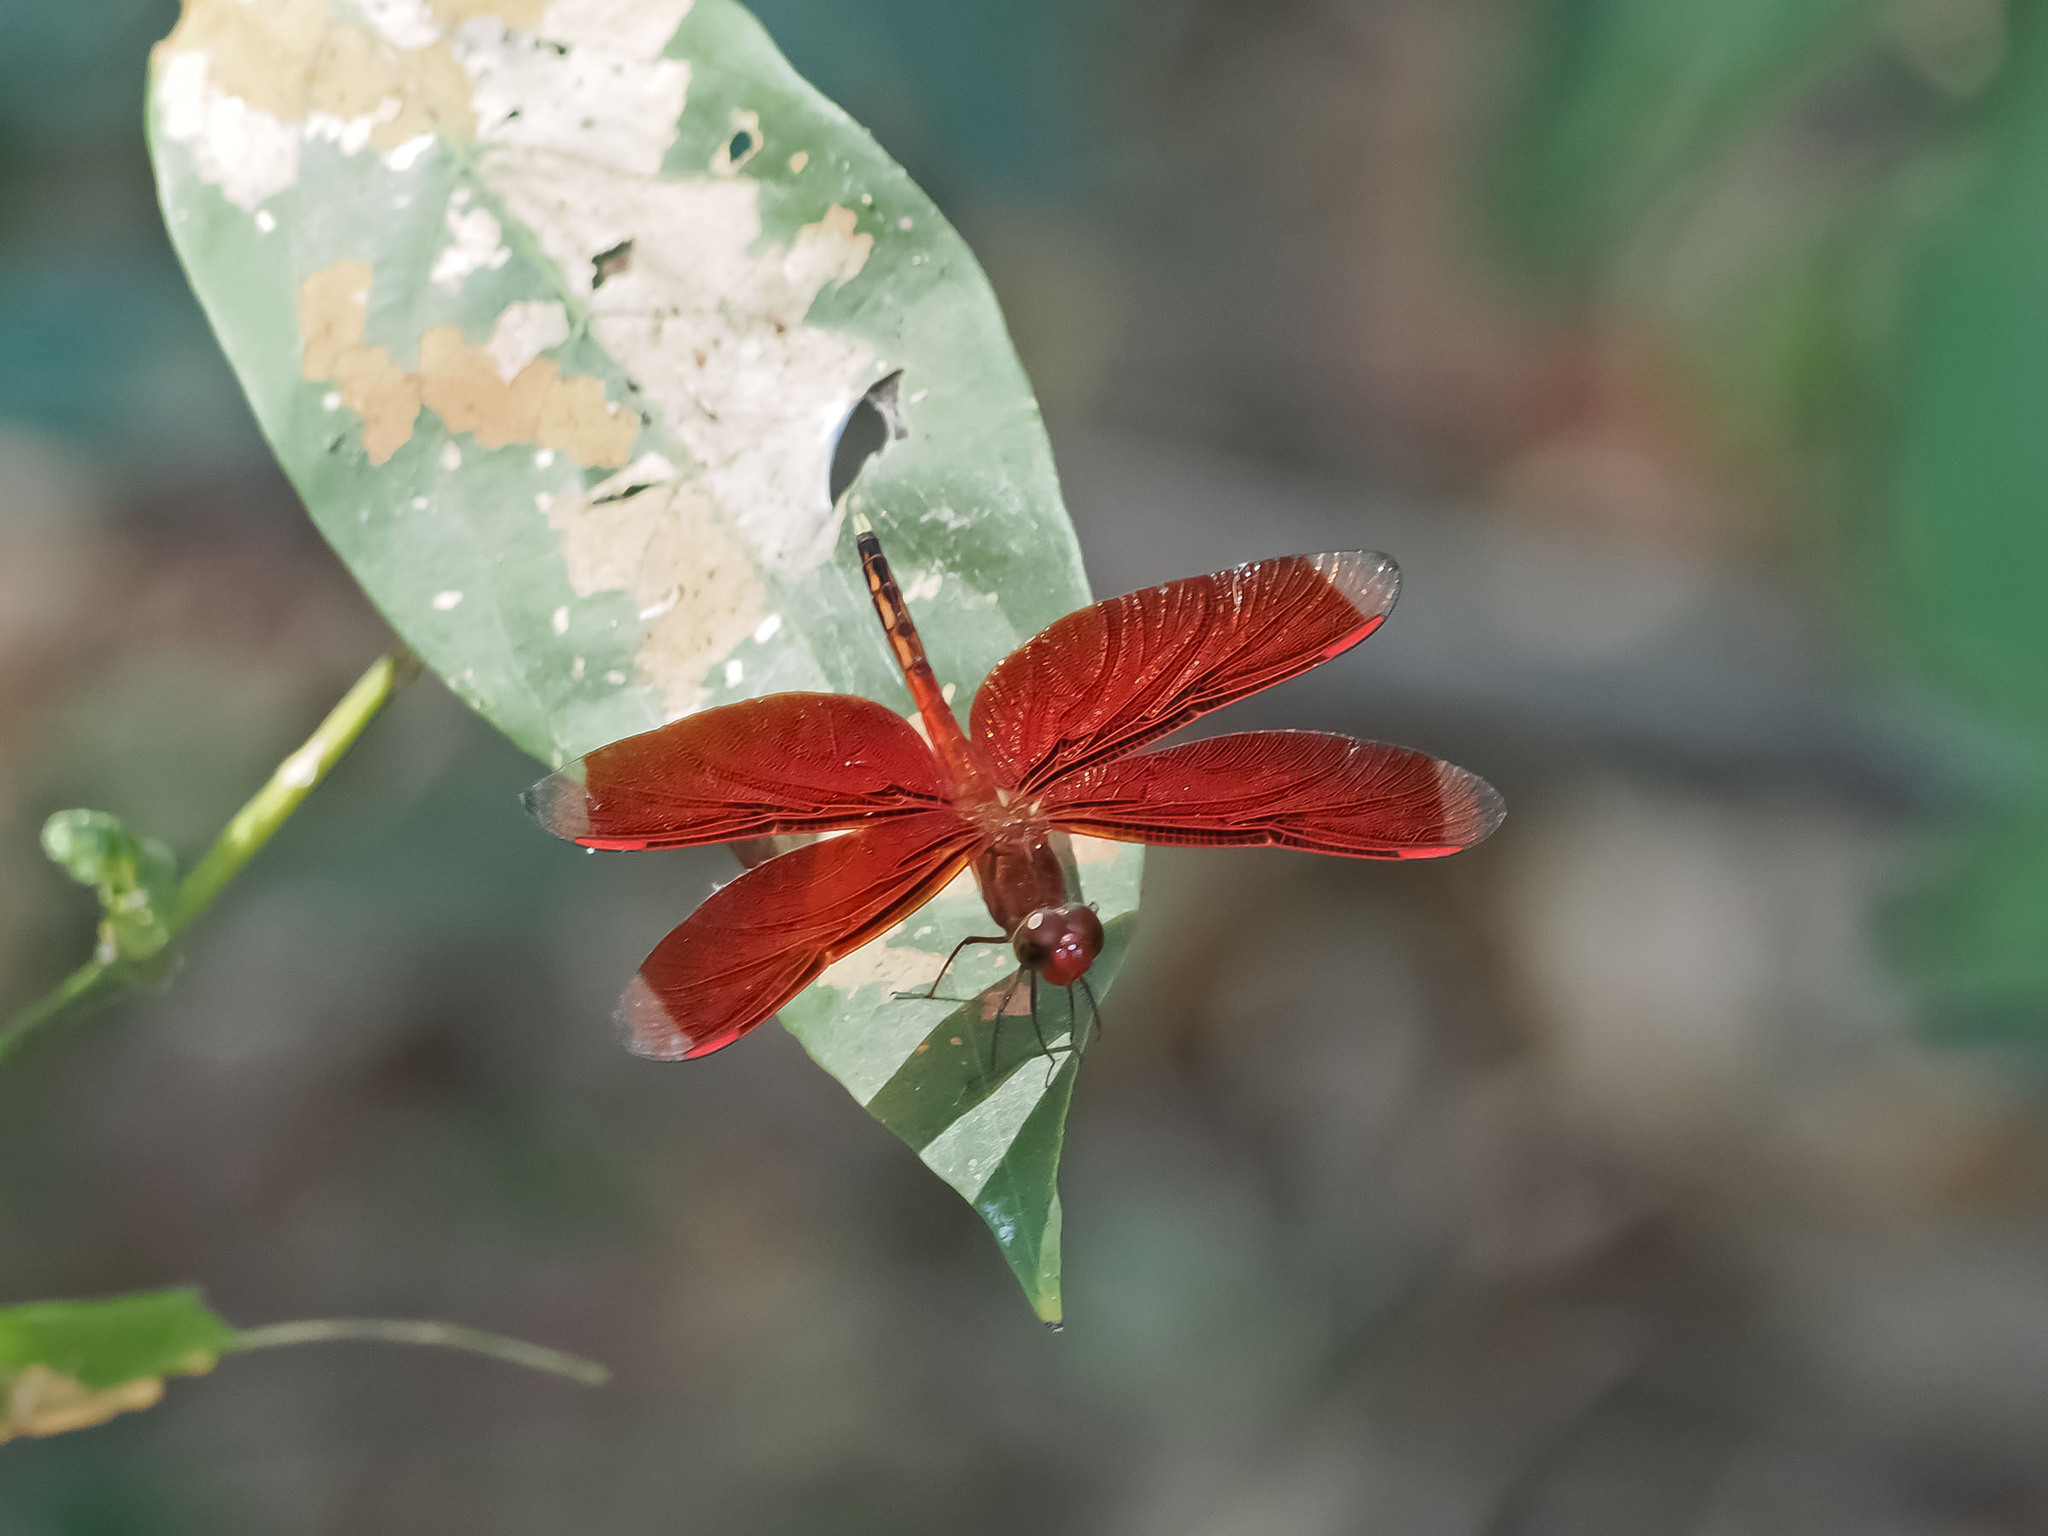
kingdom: Animalia
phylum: Arthropoda
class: Insecta
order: Odonata
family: Libellulidae
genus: Neurothemis
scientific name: Neurothemis manadensis
